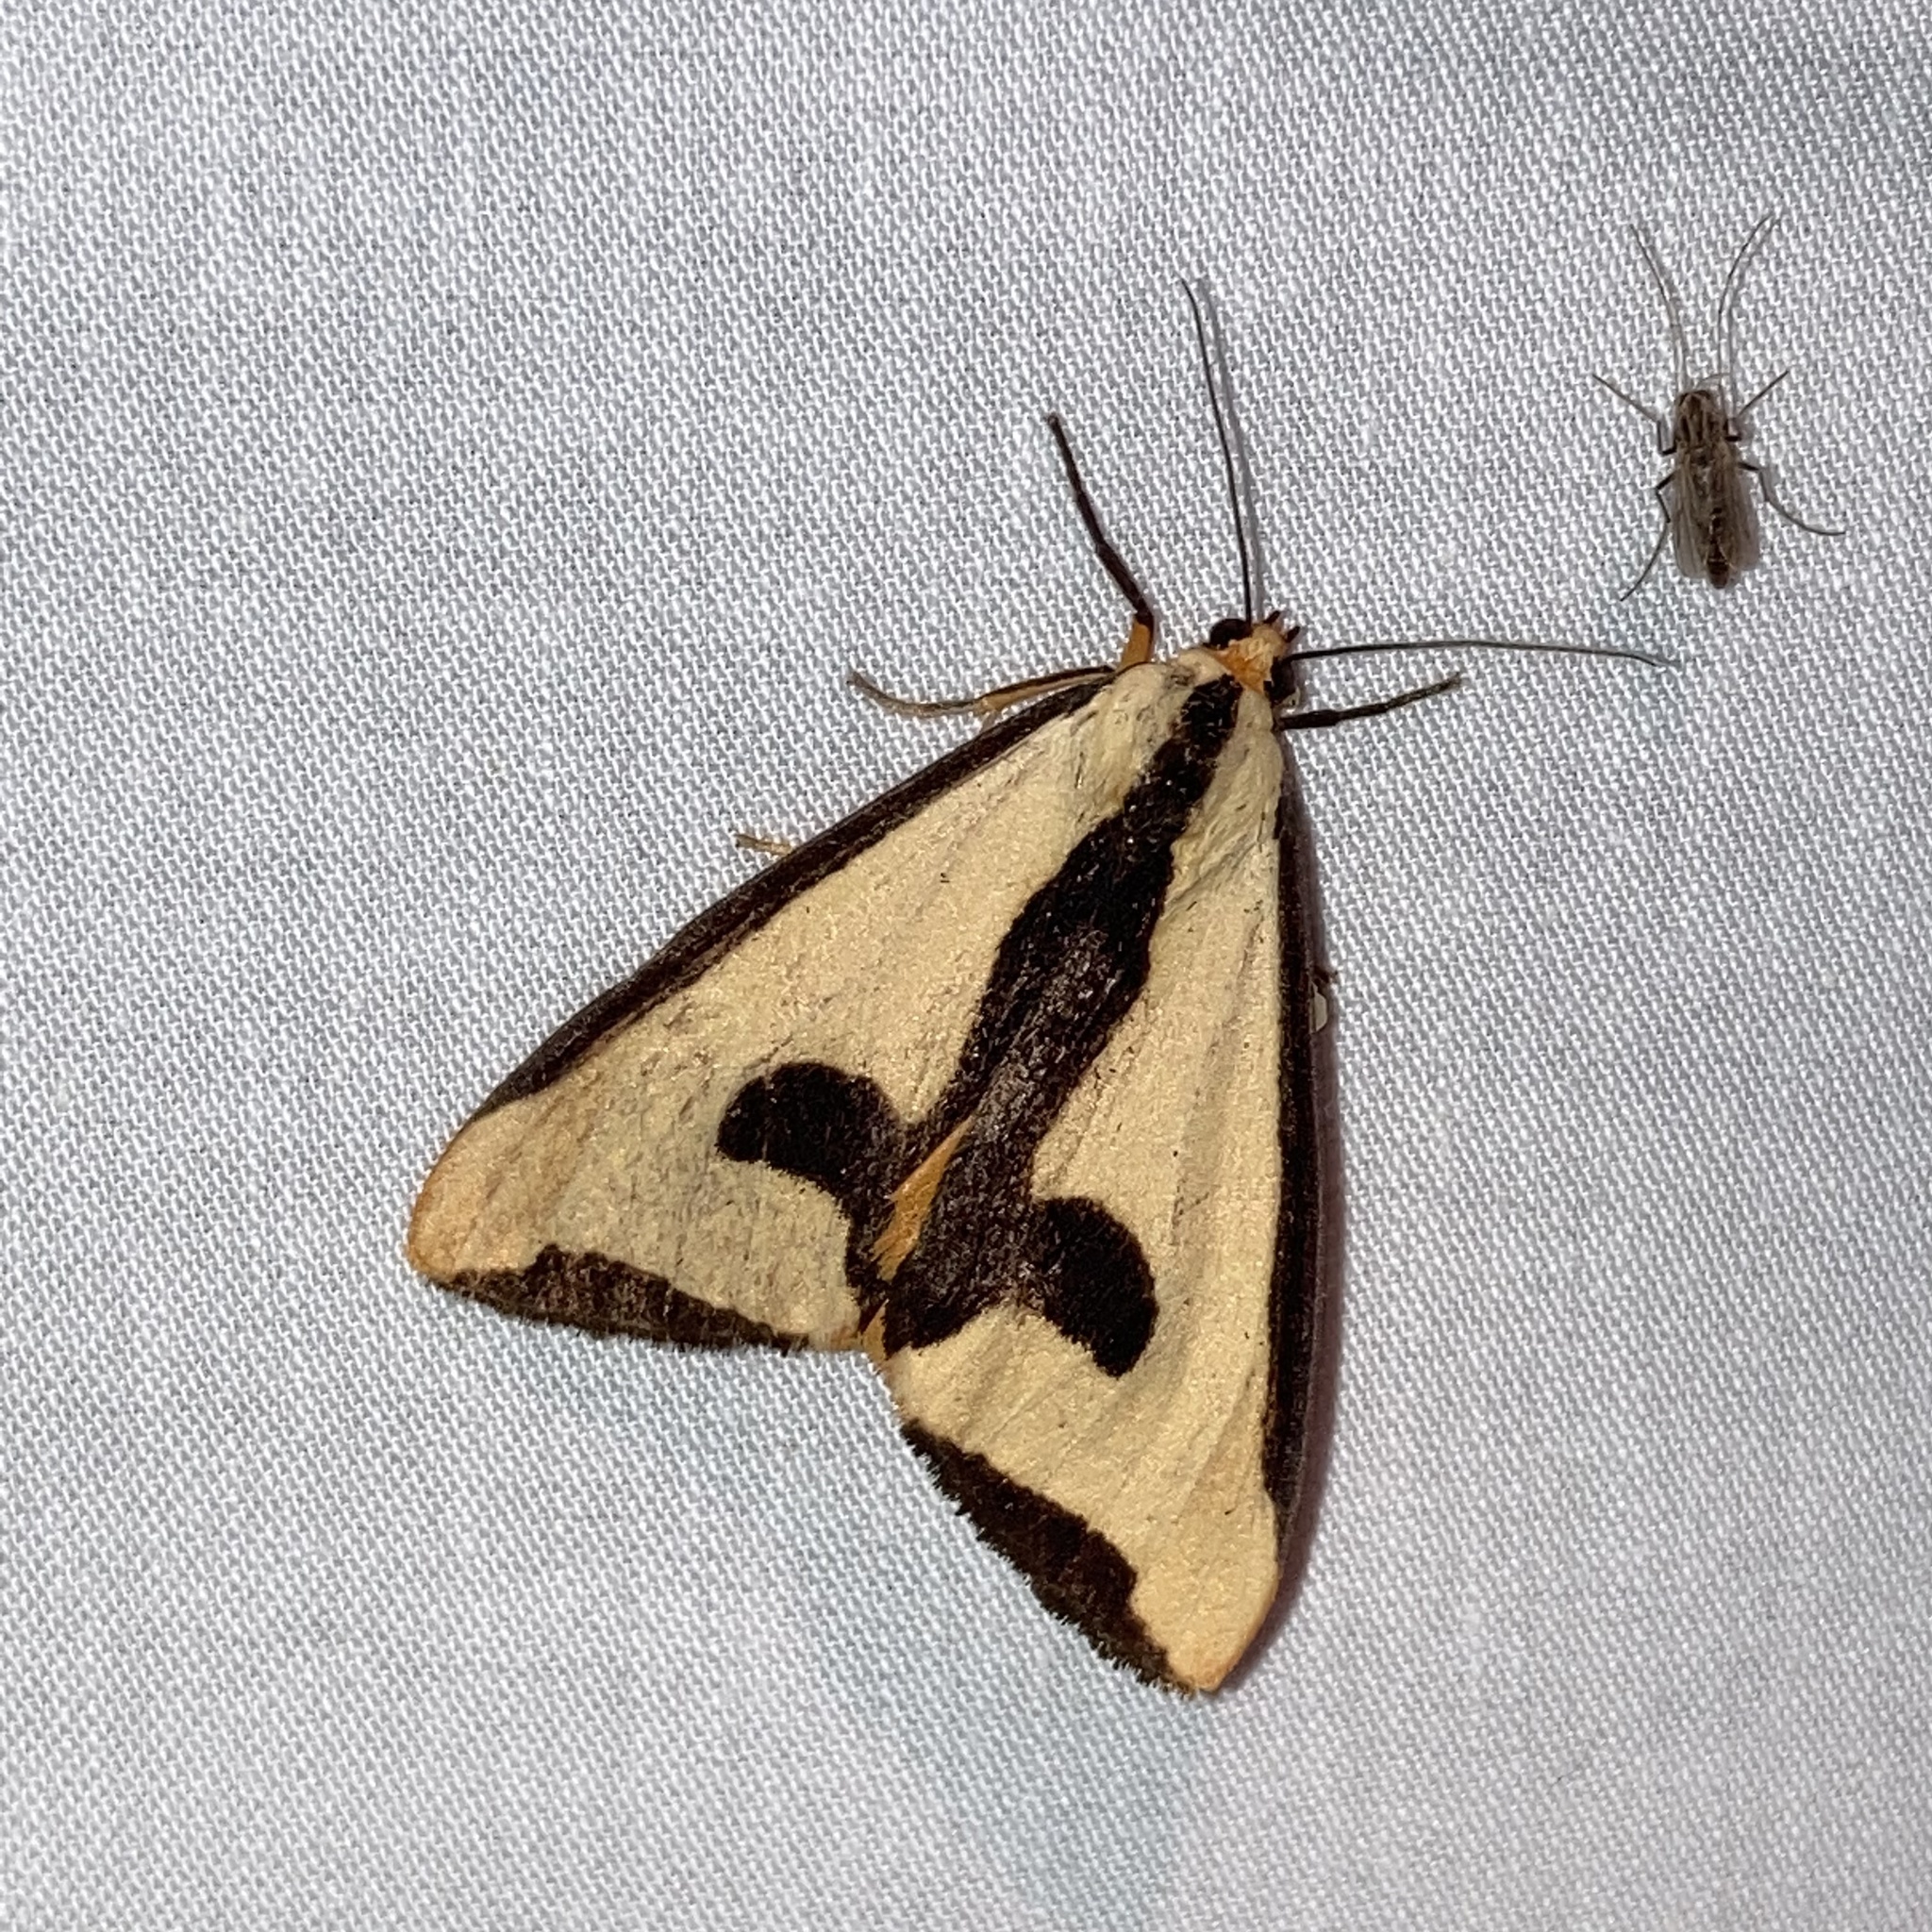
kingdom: Animalia
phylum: Arthropoda
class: Insecta
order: Lepidoptera
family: Erebidae
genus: Haploa
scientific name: Haploa clymene
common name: Clymene moth
